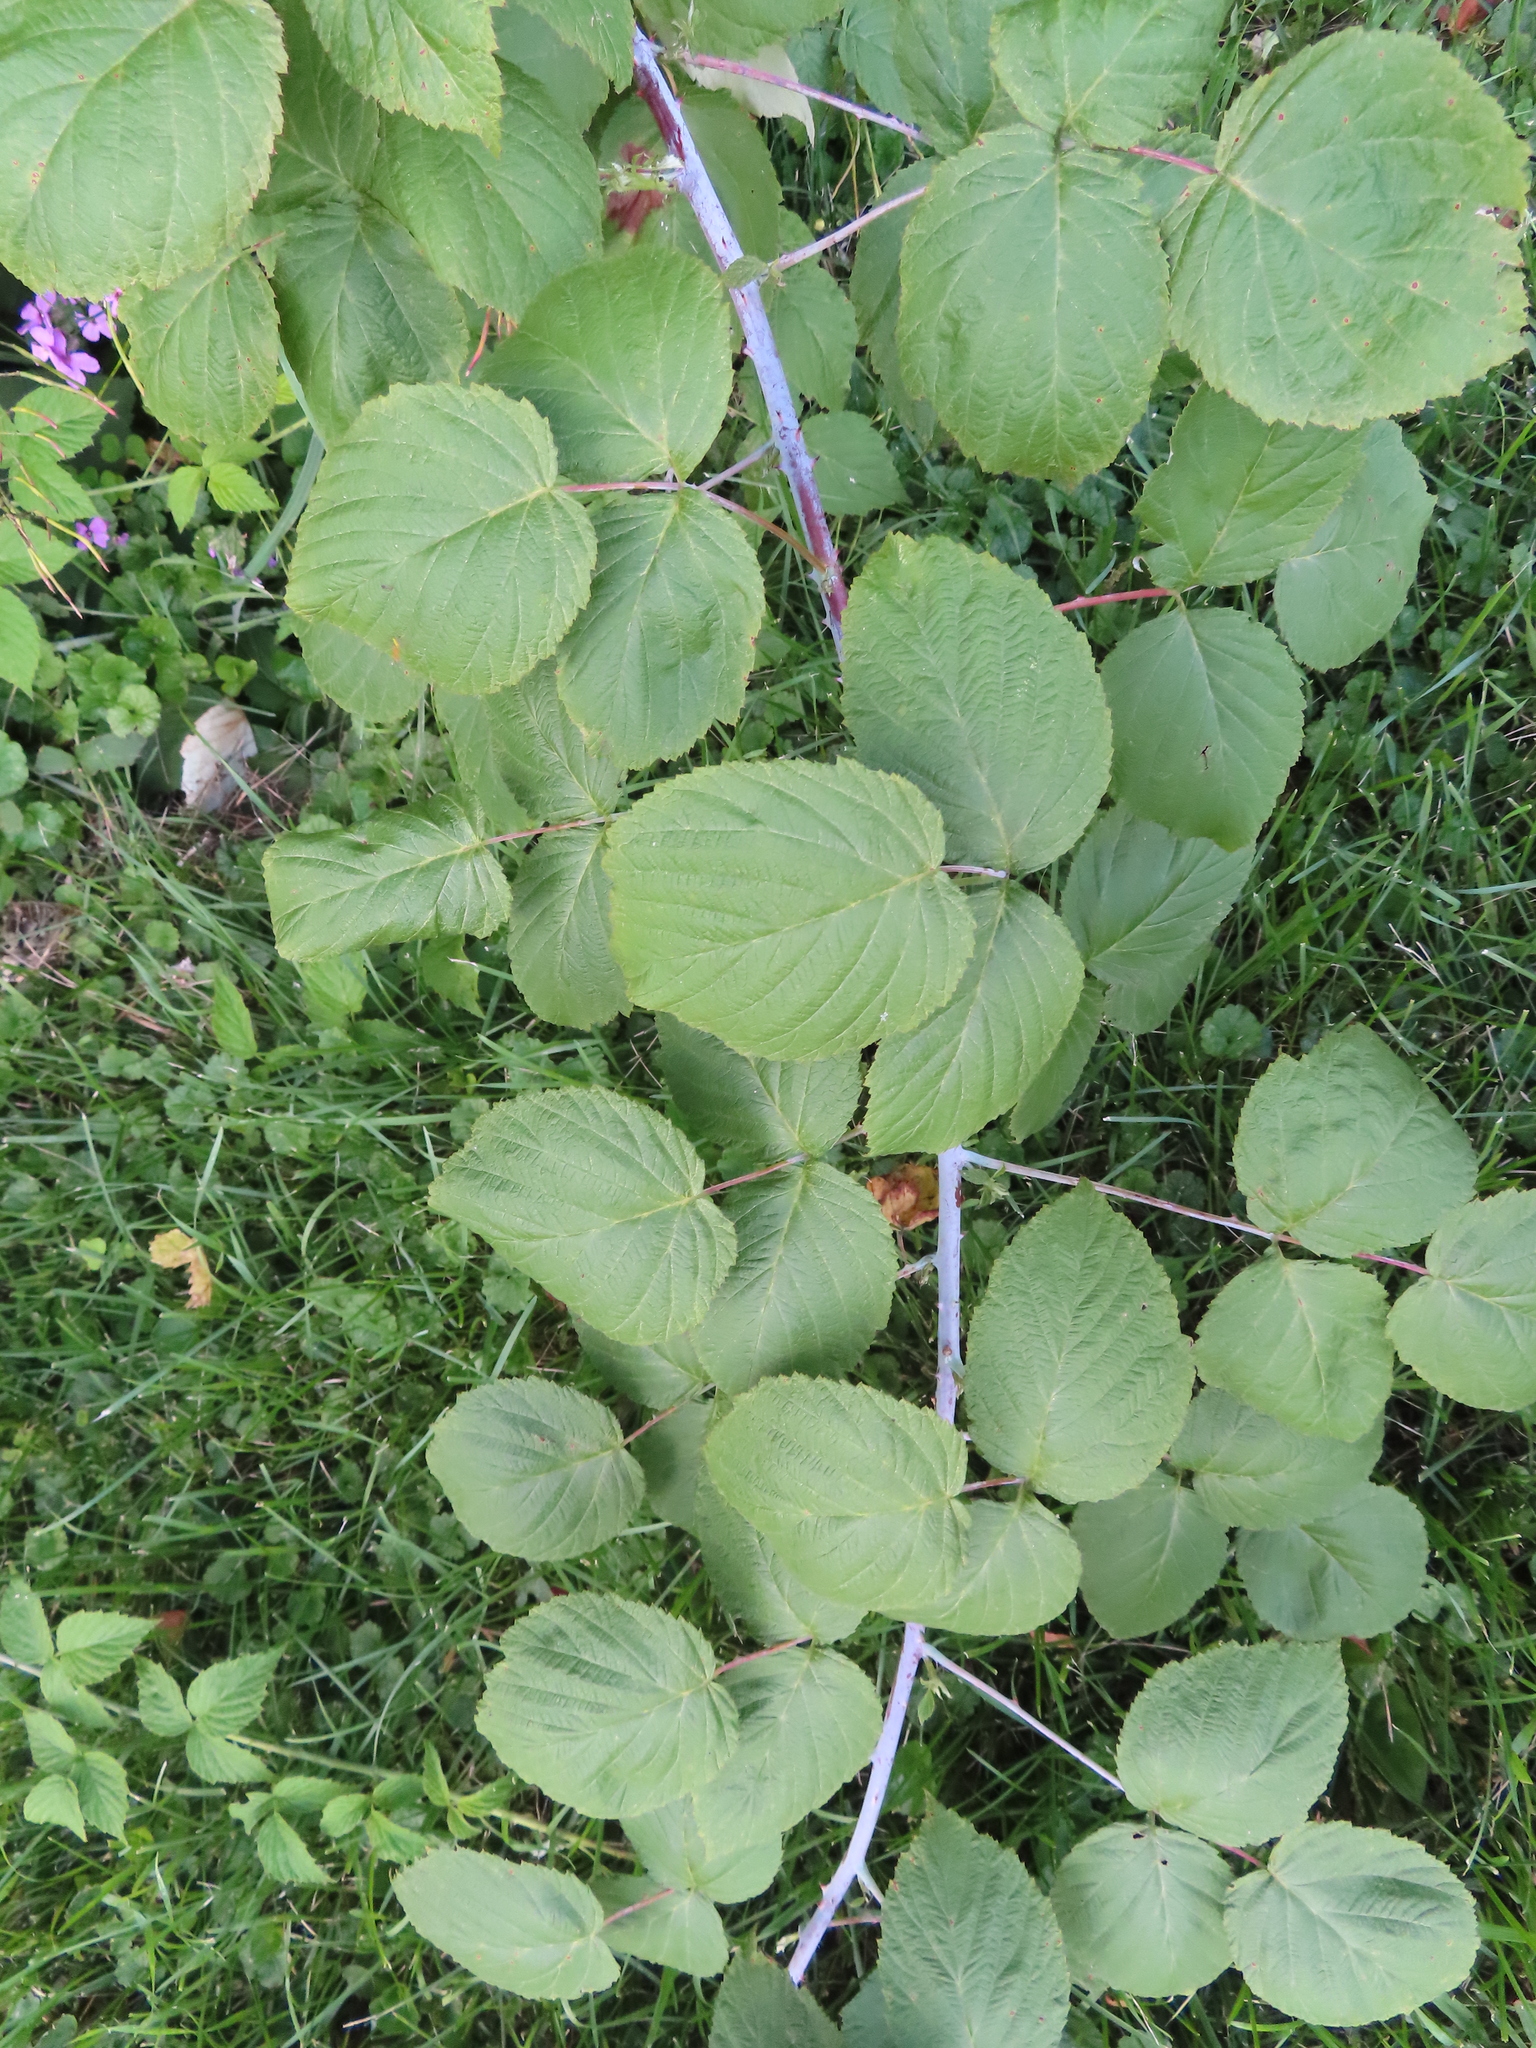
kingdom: Plantae
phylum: Tracheophyta
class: Magnoliopsida
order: Rosales
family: Rosaceae
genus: Rubus
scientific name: Rubus occidentalis
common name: Black raspberry
